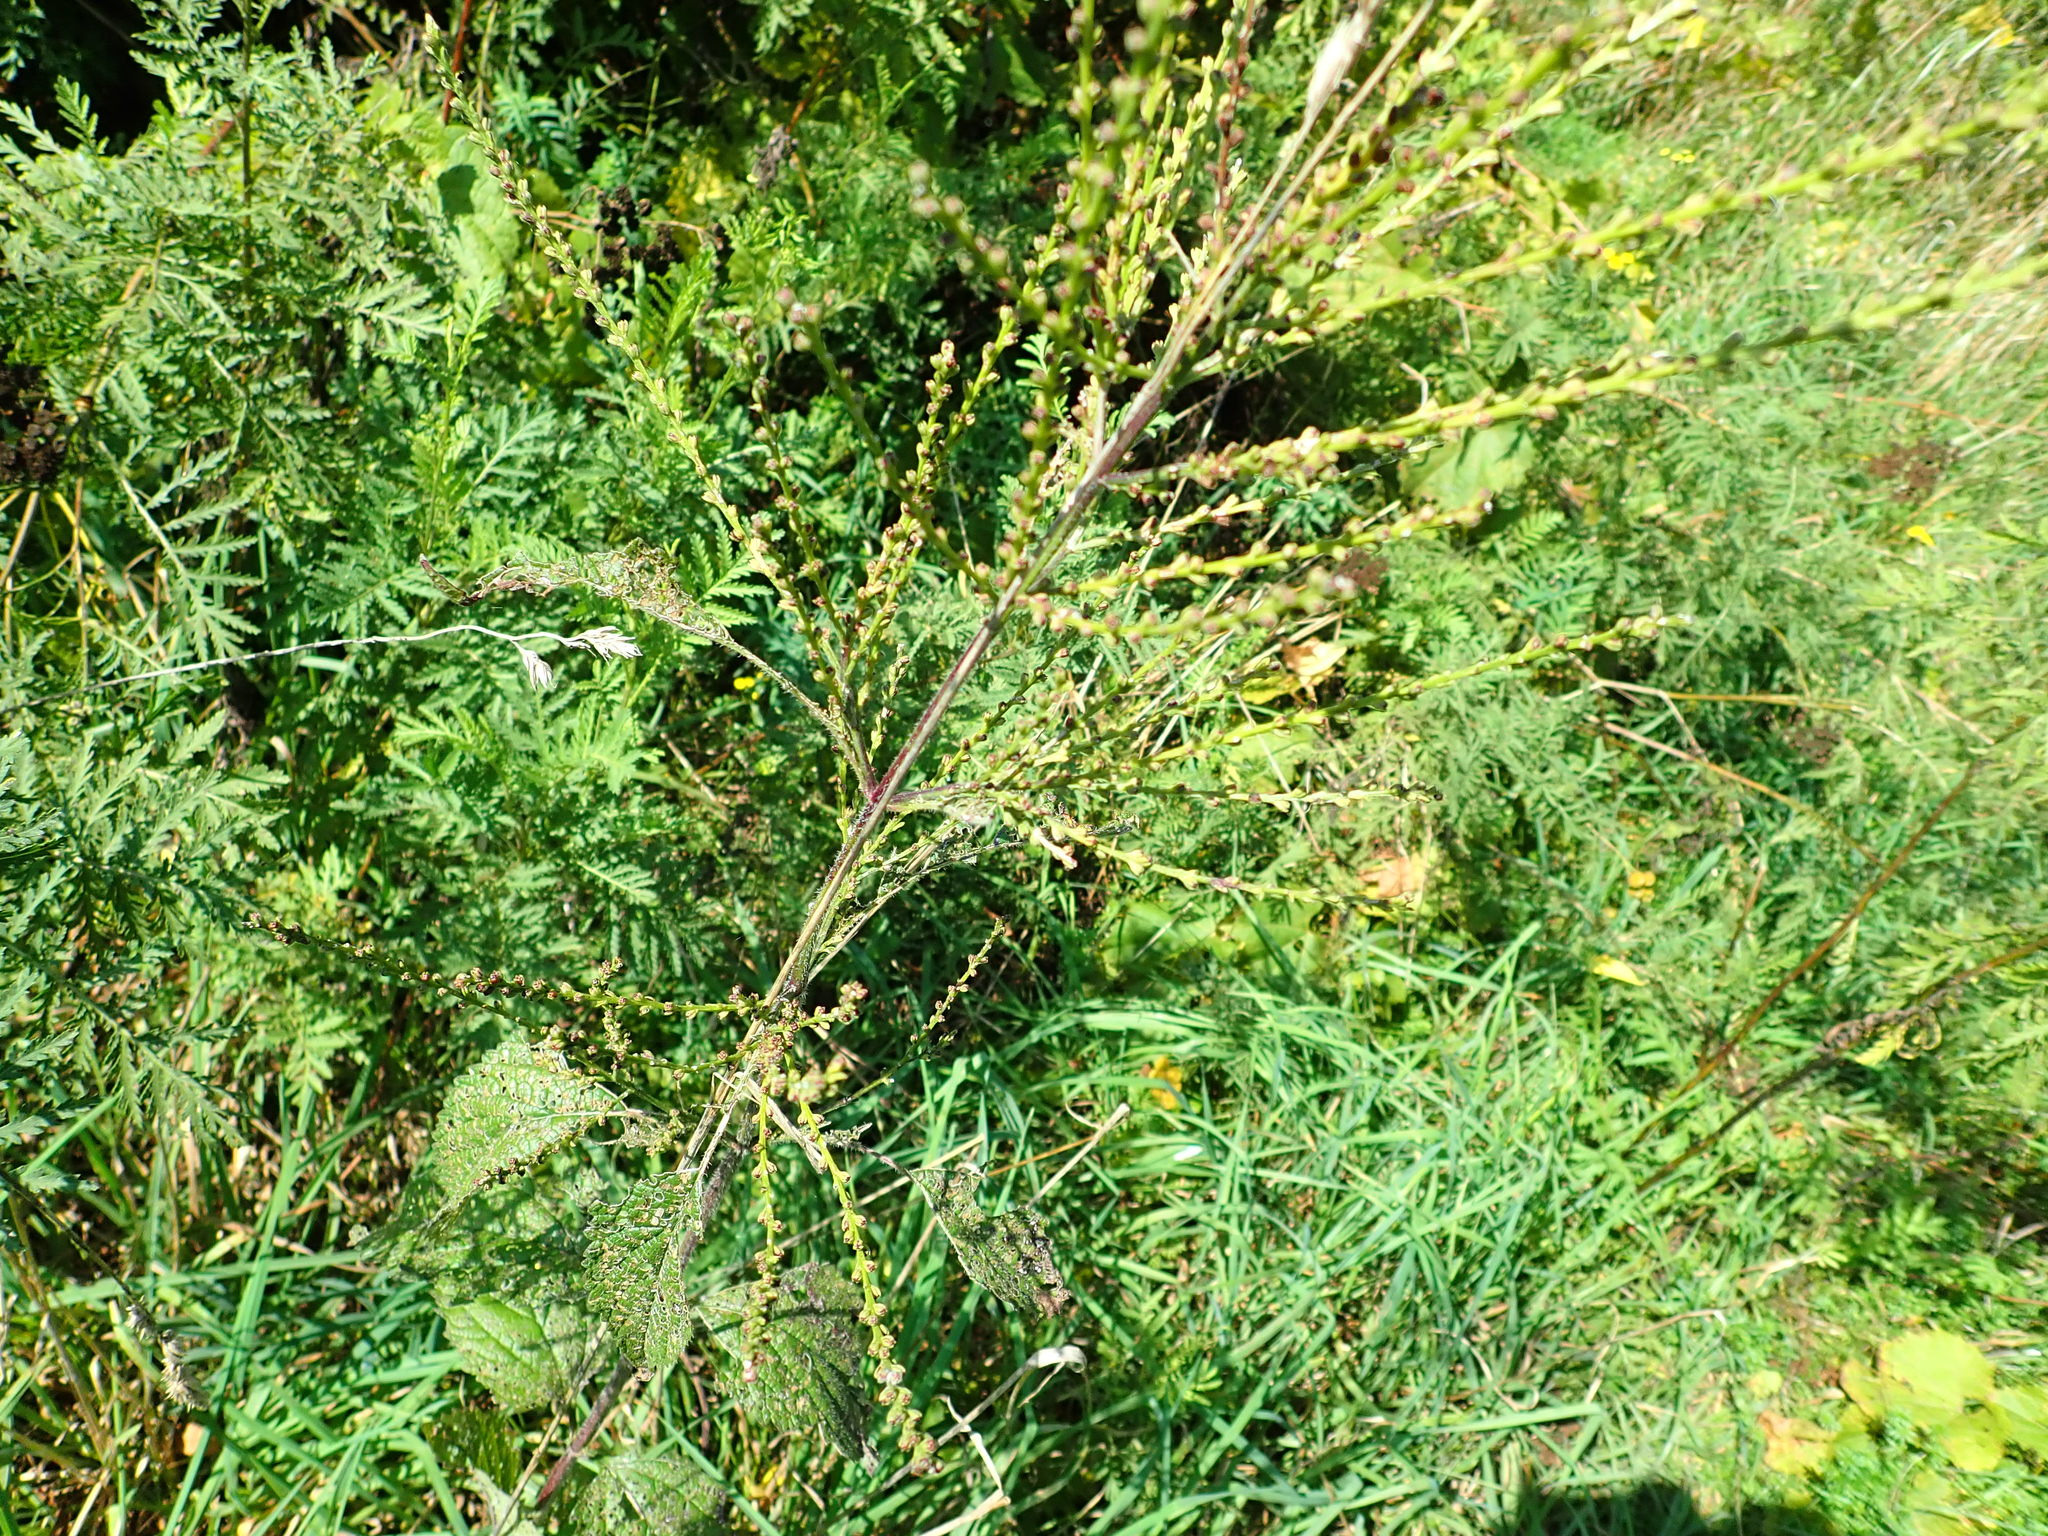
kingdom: Plantae
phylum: Tracheophyta
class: Magnoliopsida
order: Lamiales
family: Verbenaceae
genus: Verbena
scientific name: Verbena urticifolia
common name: Nettle-leaved vervain
